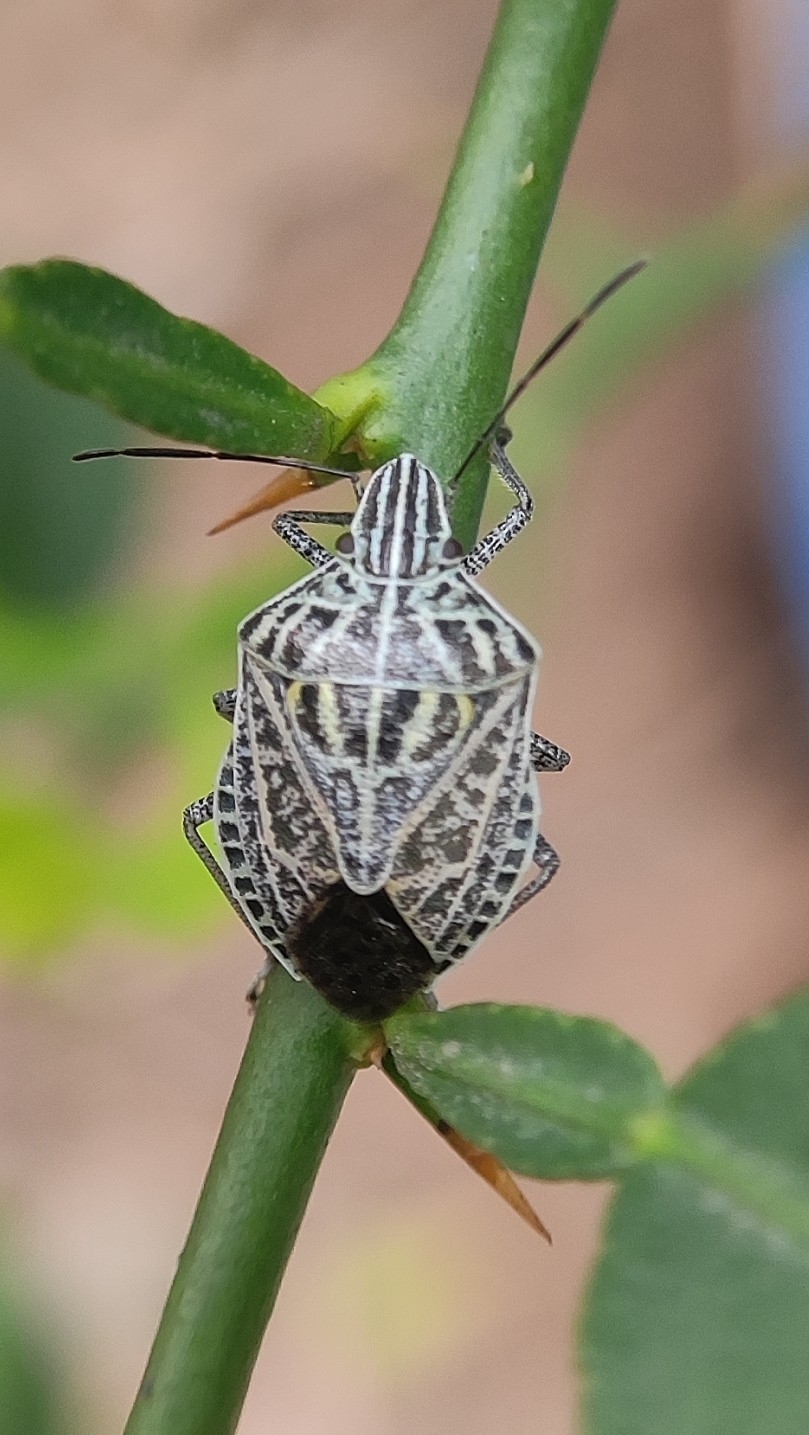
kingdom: Animalia
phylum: Arthropoda
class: Insecta
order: Hemiptera
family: Pentatomidae
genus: Cappaea
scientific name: Cappaea taprobanensis
